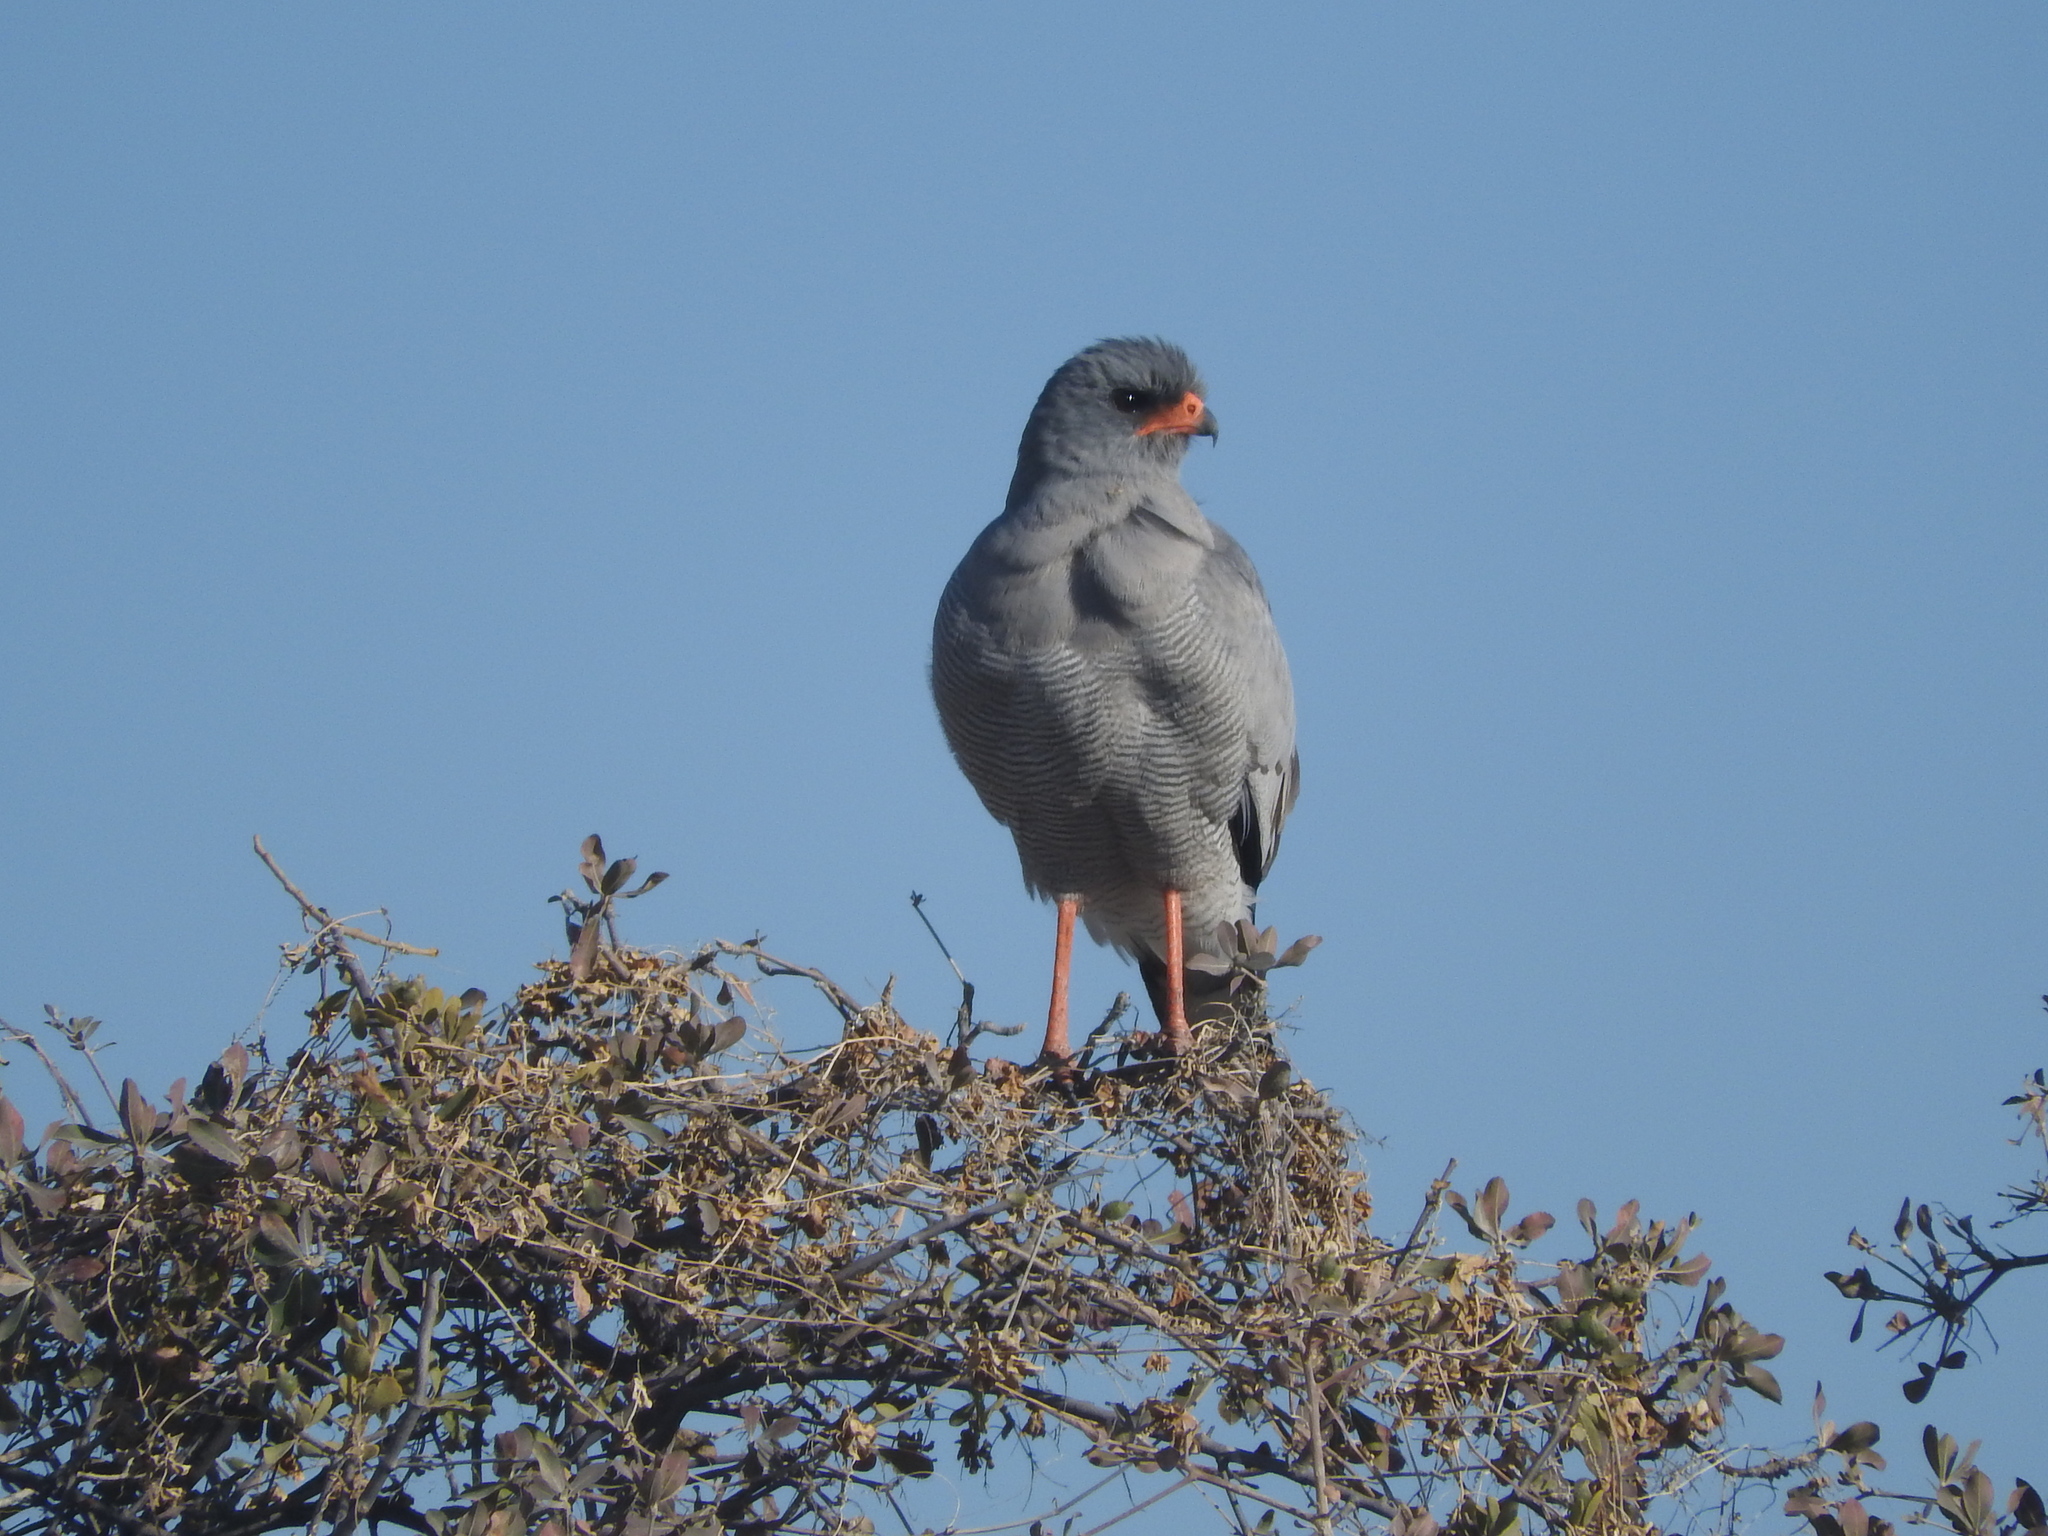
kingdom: Animalia
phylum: Chordata
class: Aves
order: Accipitriformes
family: Accipitridae
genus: Melierax
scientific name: Melierax canorus
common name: Pale chanting-goshawk
